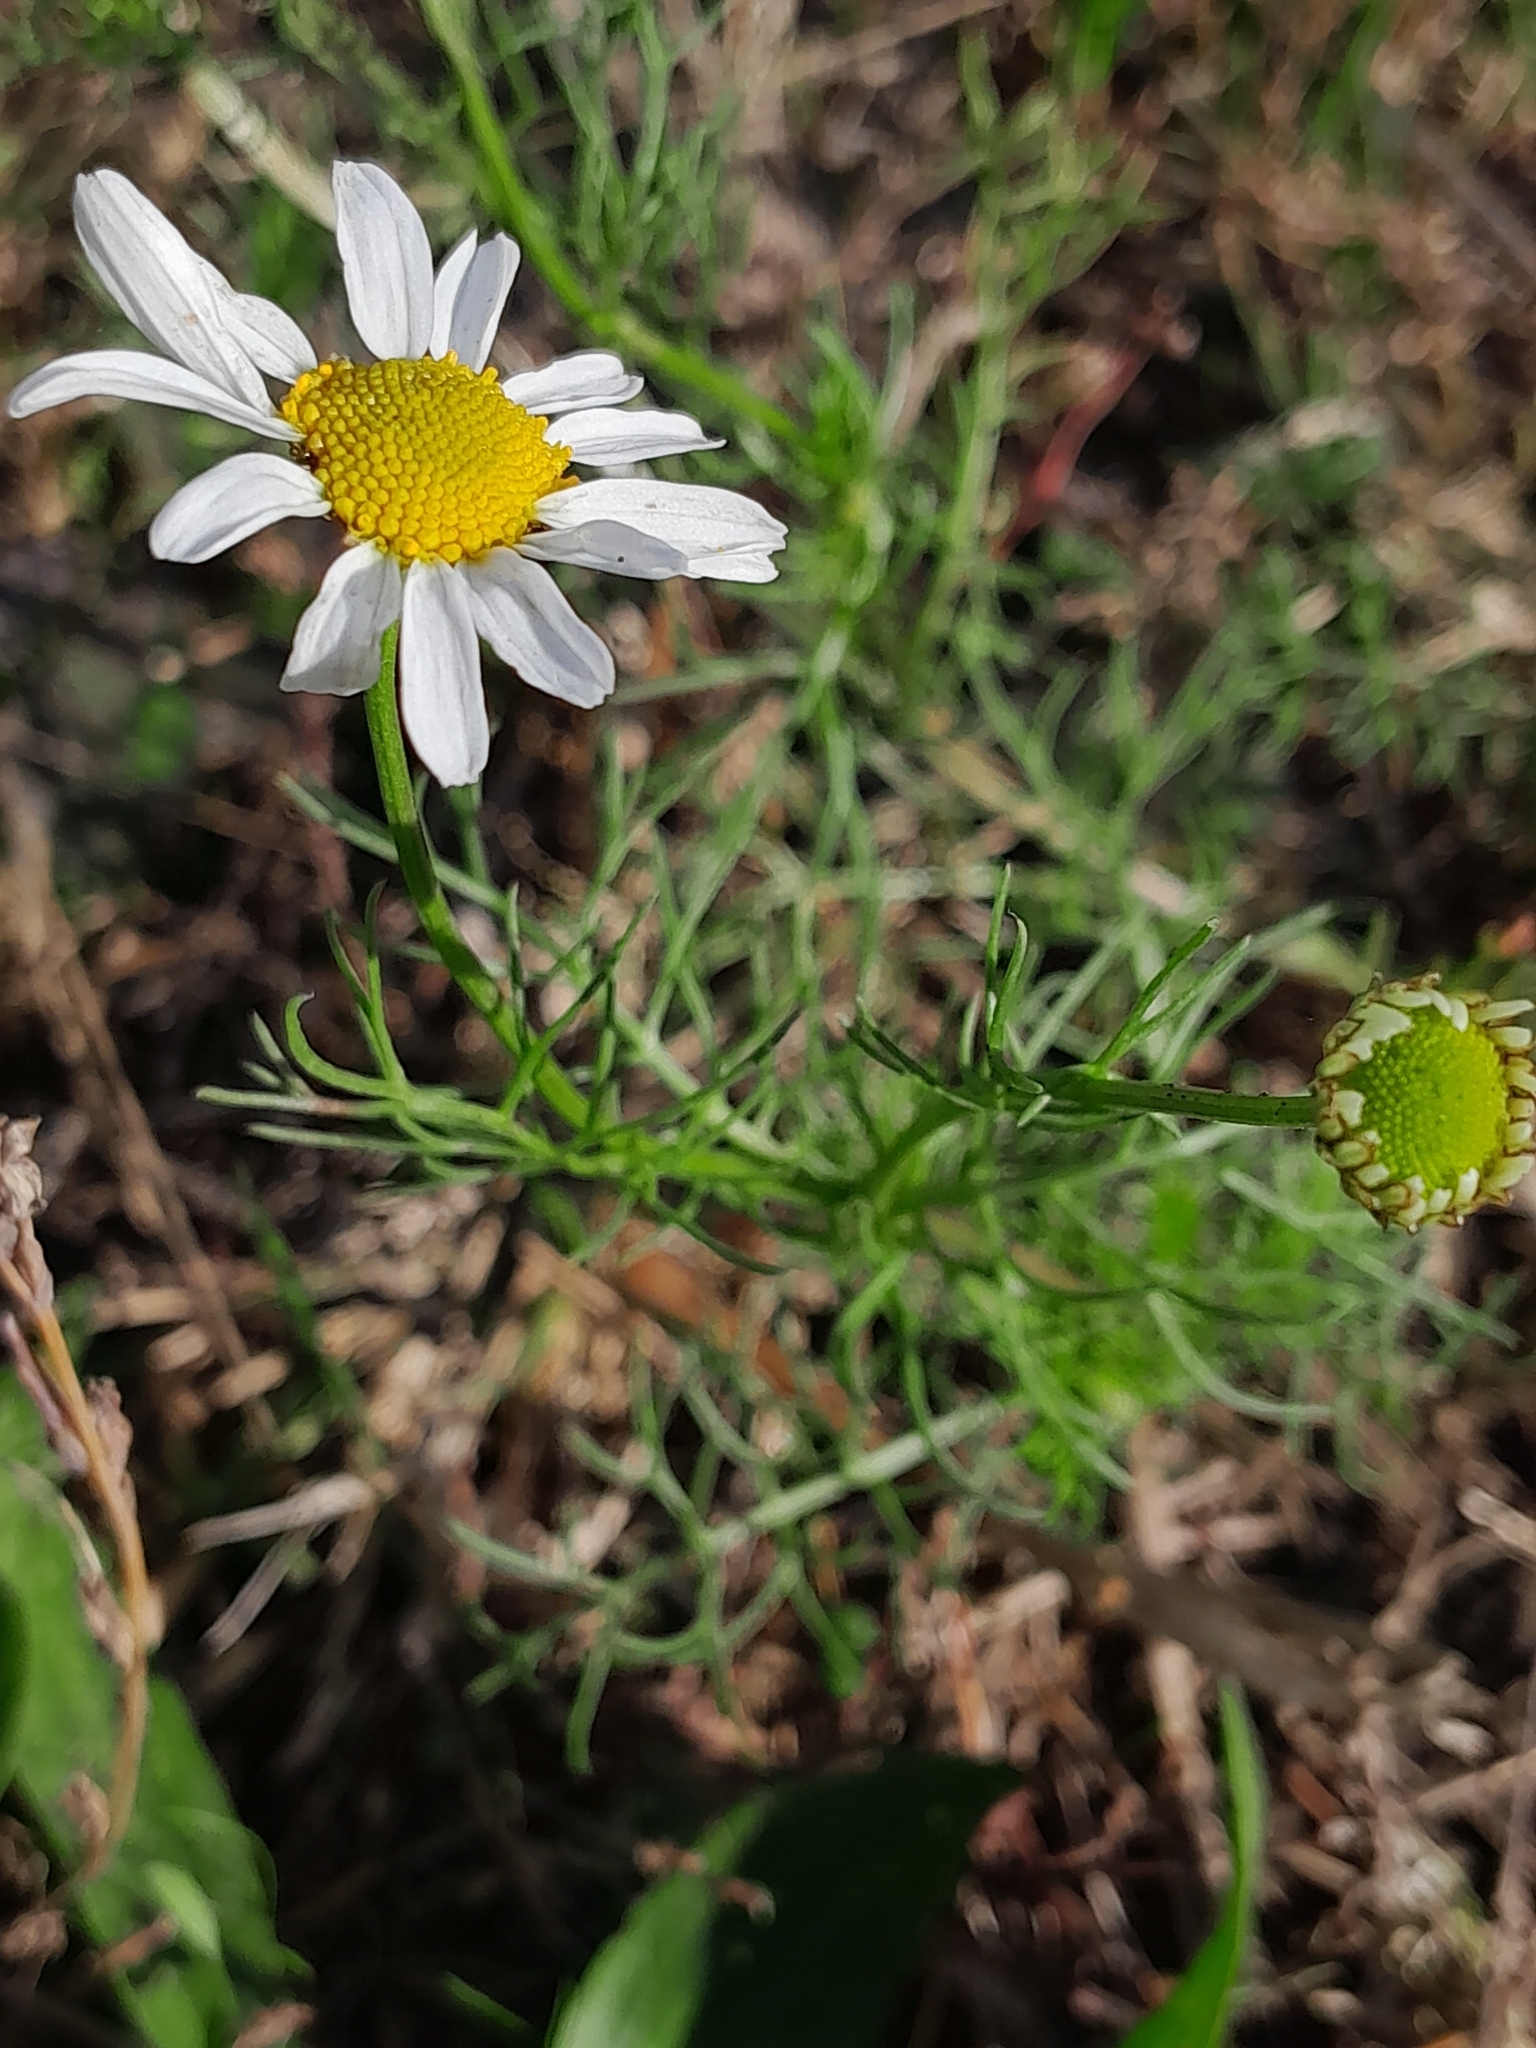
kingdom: Plantae
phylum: Tracheophyta
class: Magnoliopsida
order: Asterales
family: Asteraceae
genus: Tripleurospermum
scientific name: Tripleurospermum inodorum
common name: Scentless mayweed
